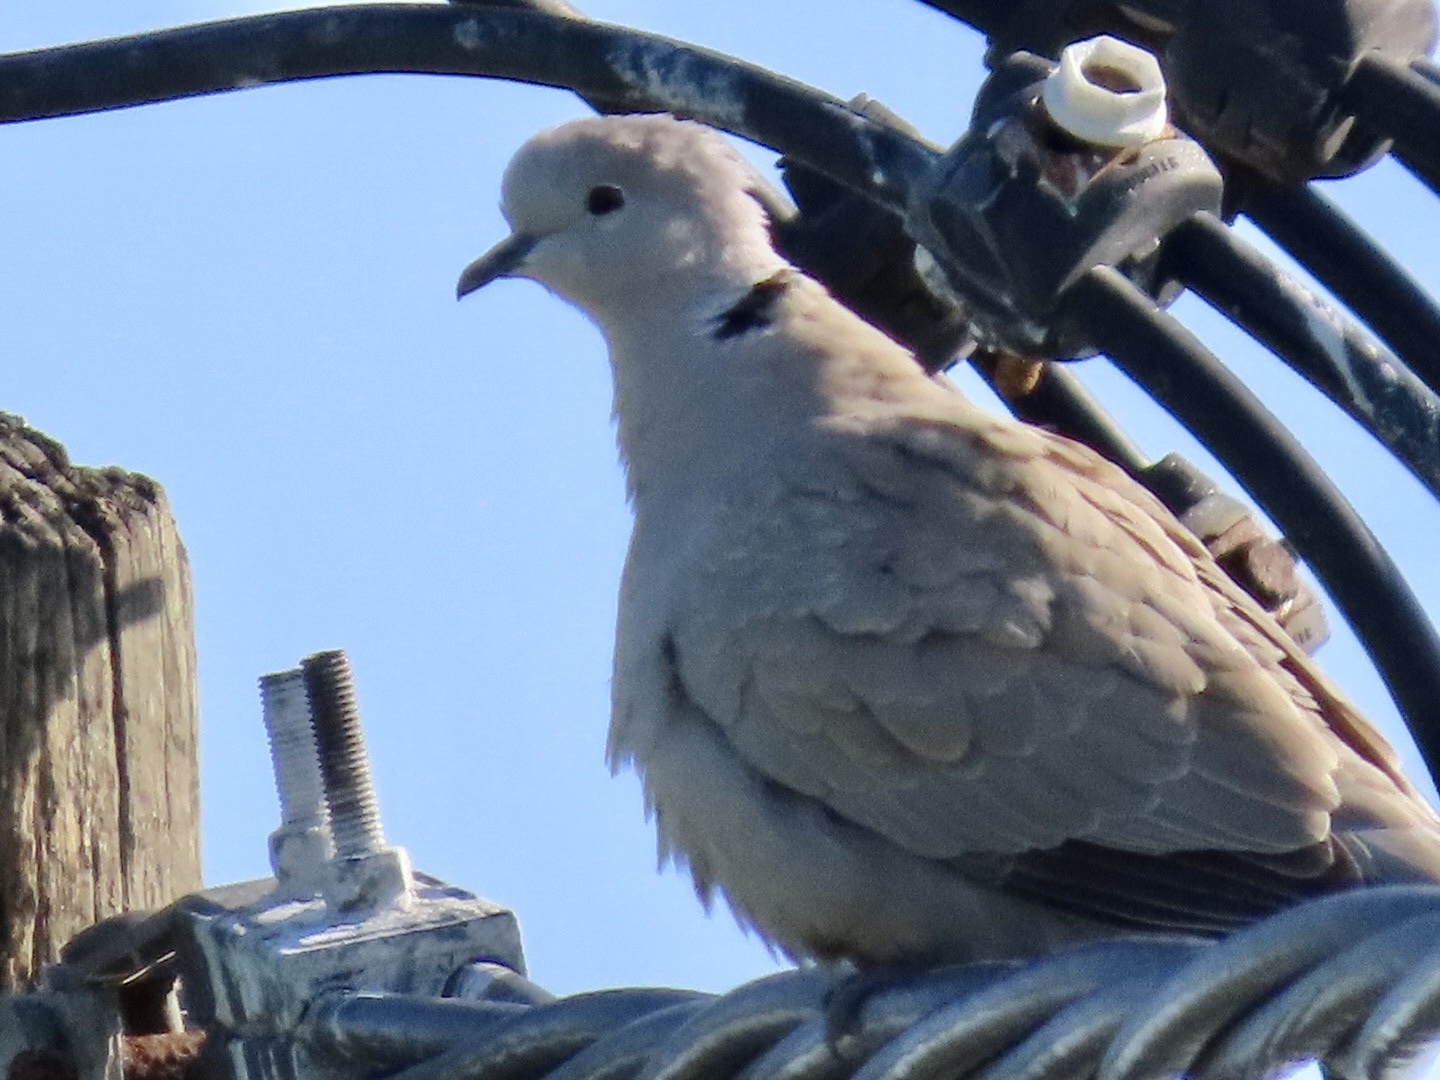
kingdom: Animalia
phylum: Chordata
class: Aves
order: Columbiformes
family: Columbidae
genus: Streptopelia
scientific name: Streptopelia decaocto
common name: Eurasian collared dove
